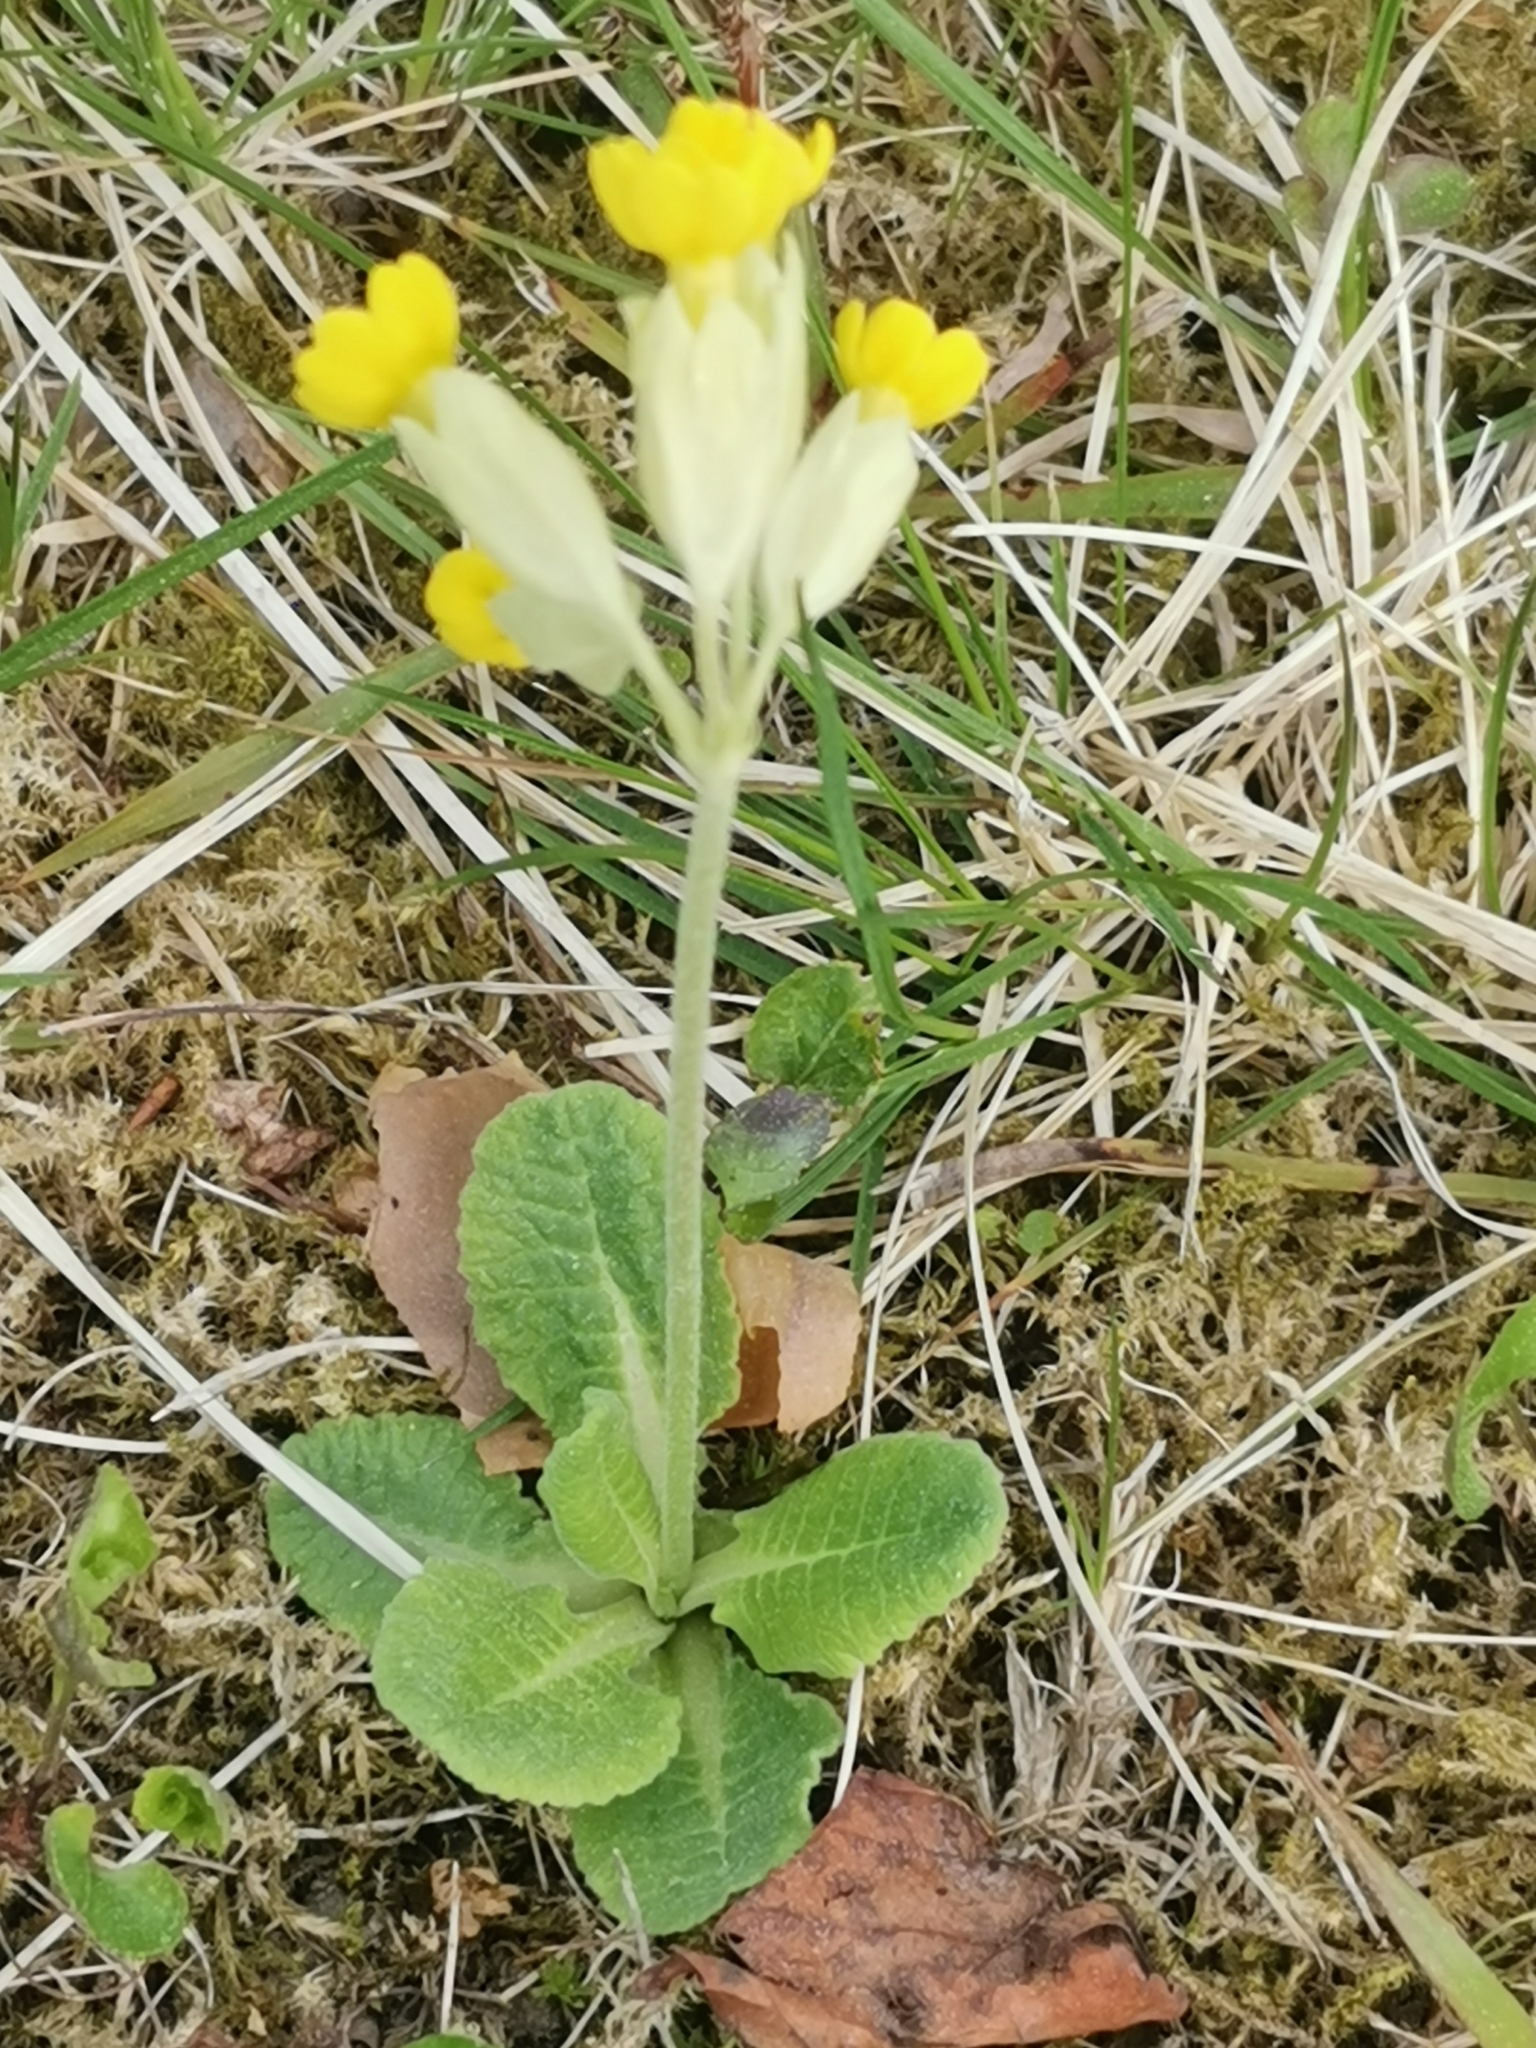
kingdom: Plantae
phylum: Tracheophyta
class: Magnoliopsida
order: Ericales
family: Primulaceae
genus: Primula
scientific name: Primula veris
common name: Cowslip
